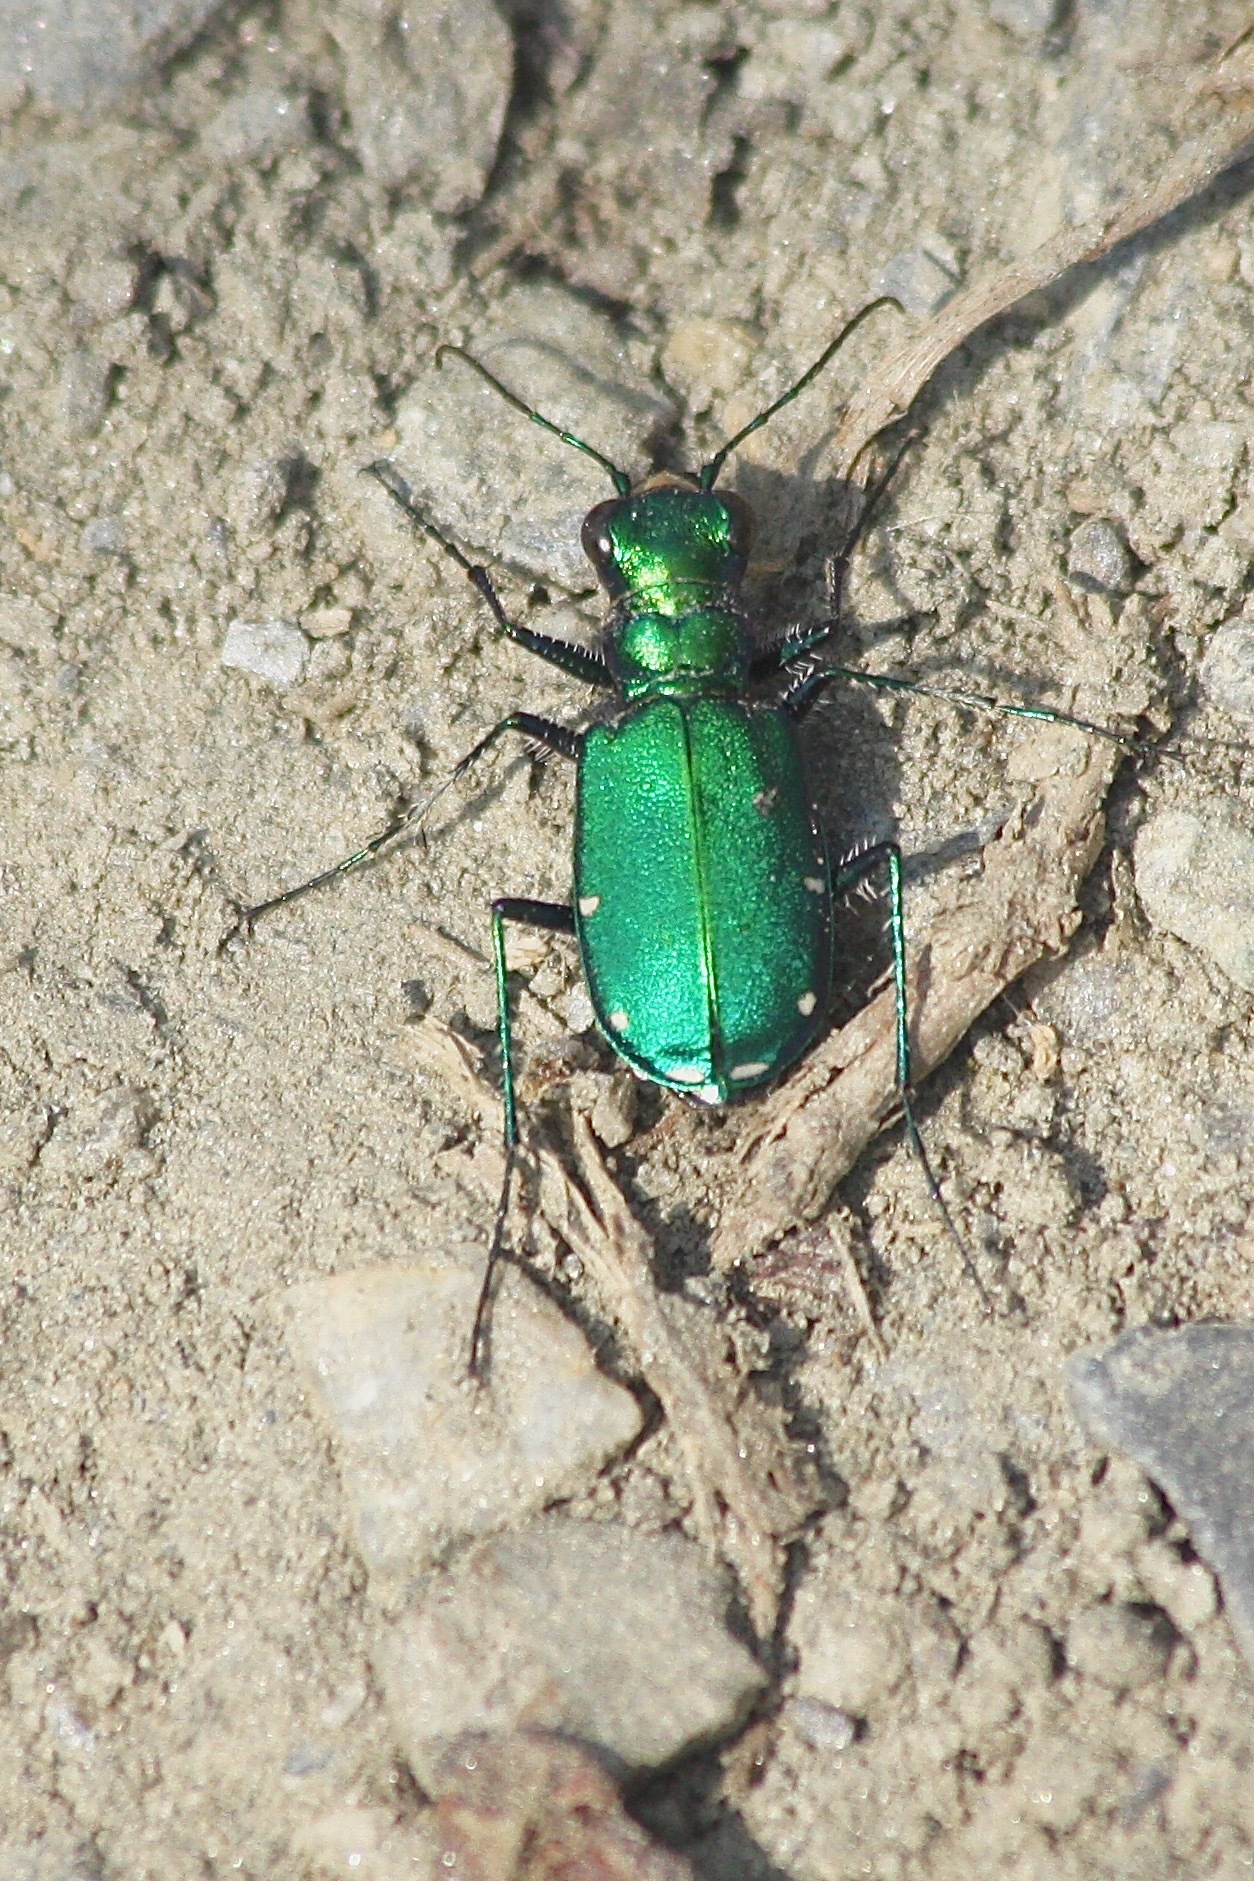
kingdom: Animalia
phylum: Arthropoda
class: Insecta
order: Coleoptera
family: Carabidae
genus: Cicindela
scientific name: Cicindela sexguttata
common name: Six-spotted tiger beetle
